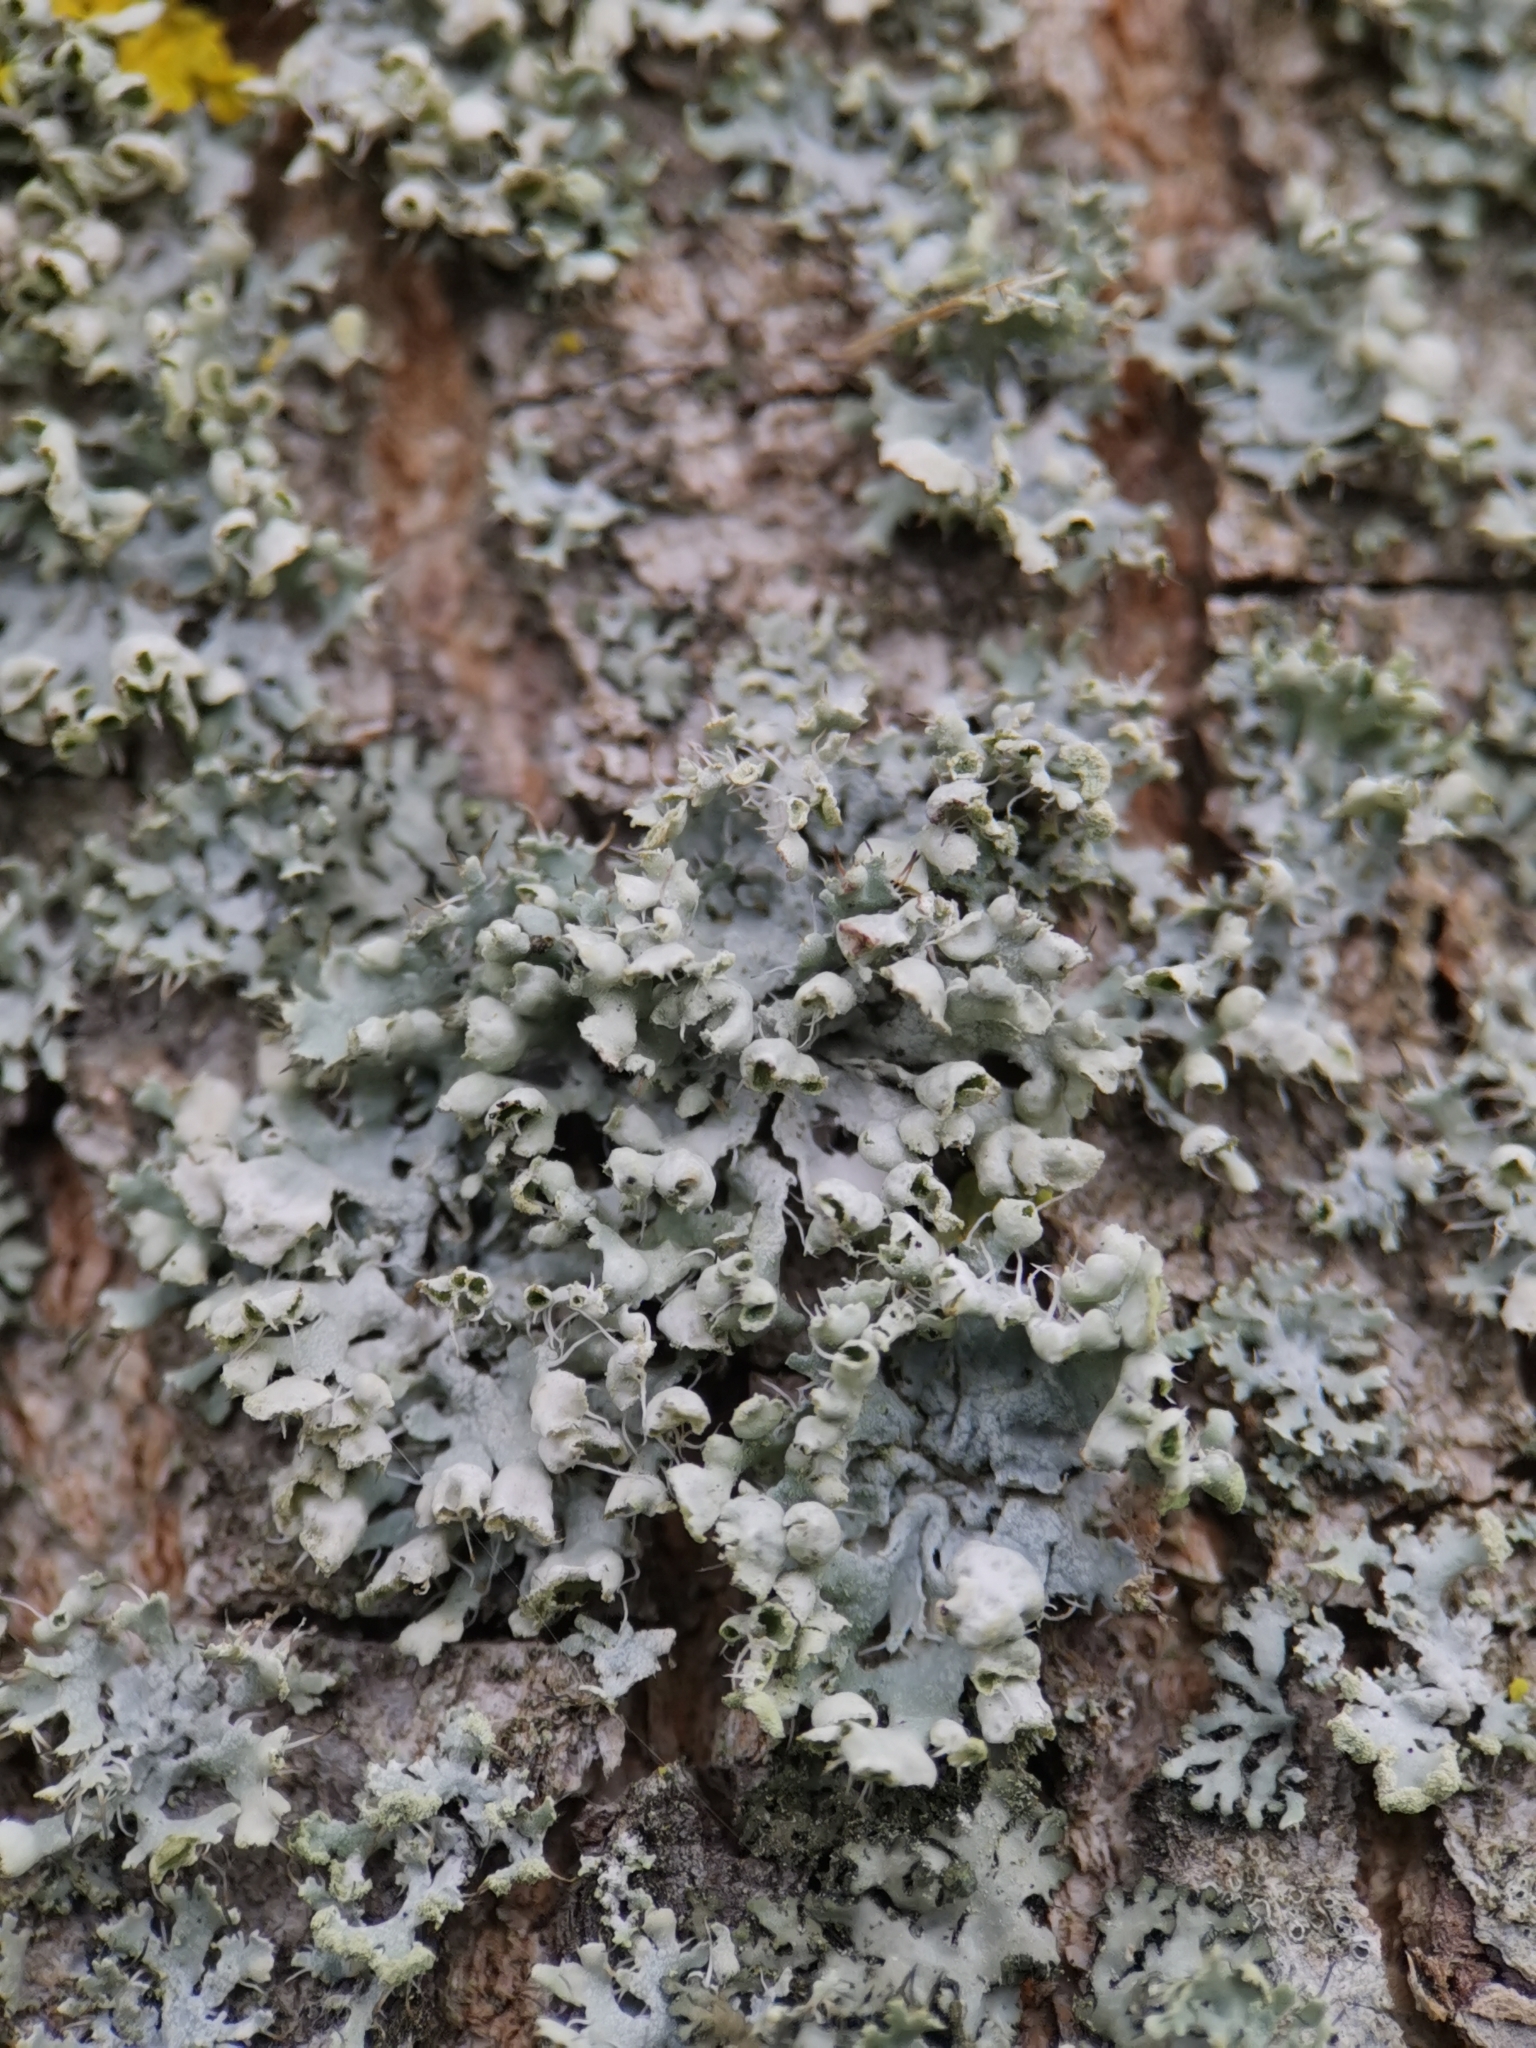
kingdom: Fungi
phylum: Ascomycota
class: Lecanoromycetes
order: Caliciales
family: Physciaceae
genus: Physcia
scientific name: Physcia adscendens
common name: Hooded rosette lichen
